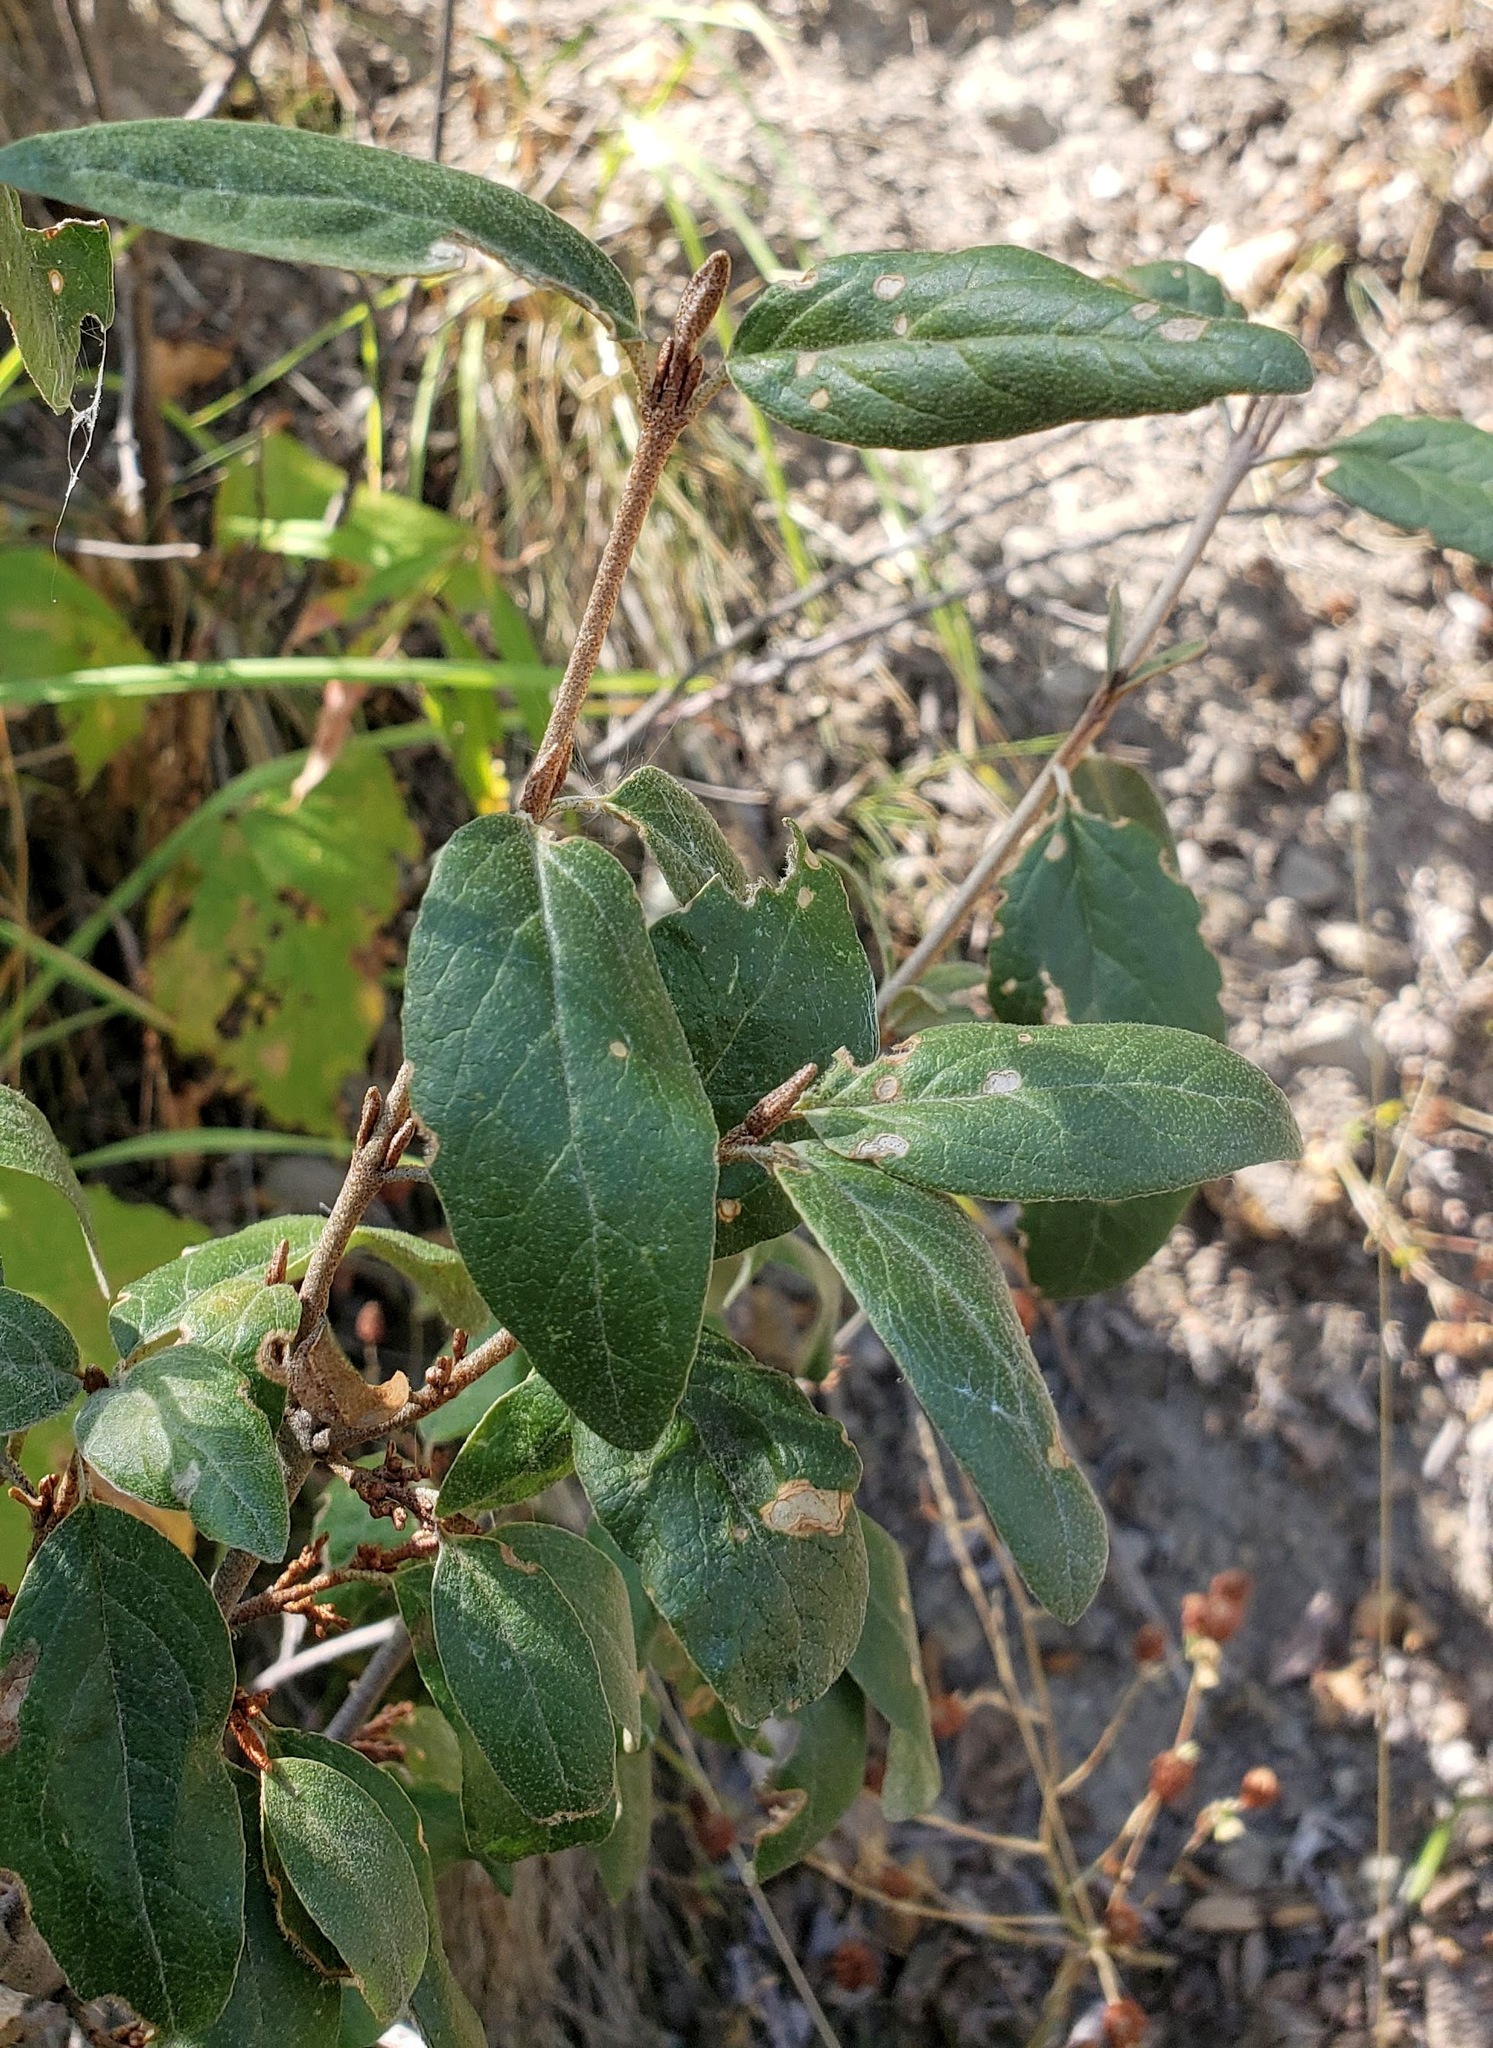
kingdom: Plantae
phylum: Tracheophyta
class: Magnoliopsida
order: Rosales
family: Elaeagnaceae
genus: Shepherdia
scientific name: Shepherdia canadensis
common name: Soapberry
